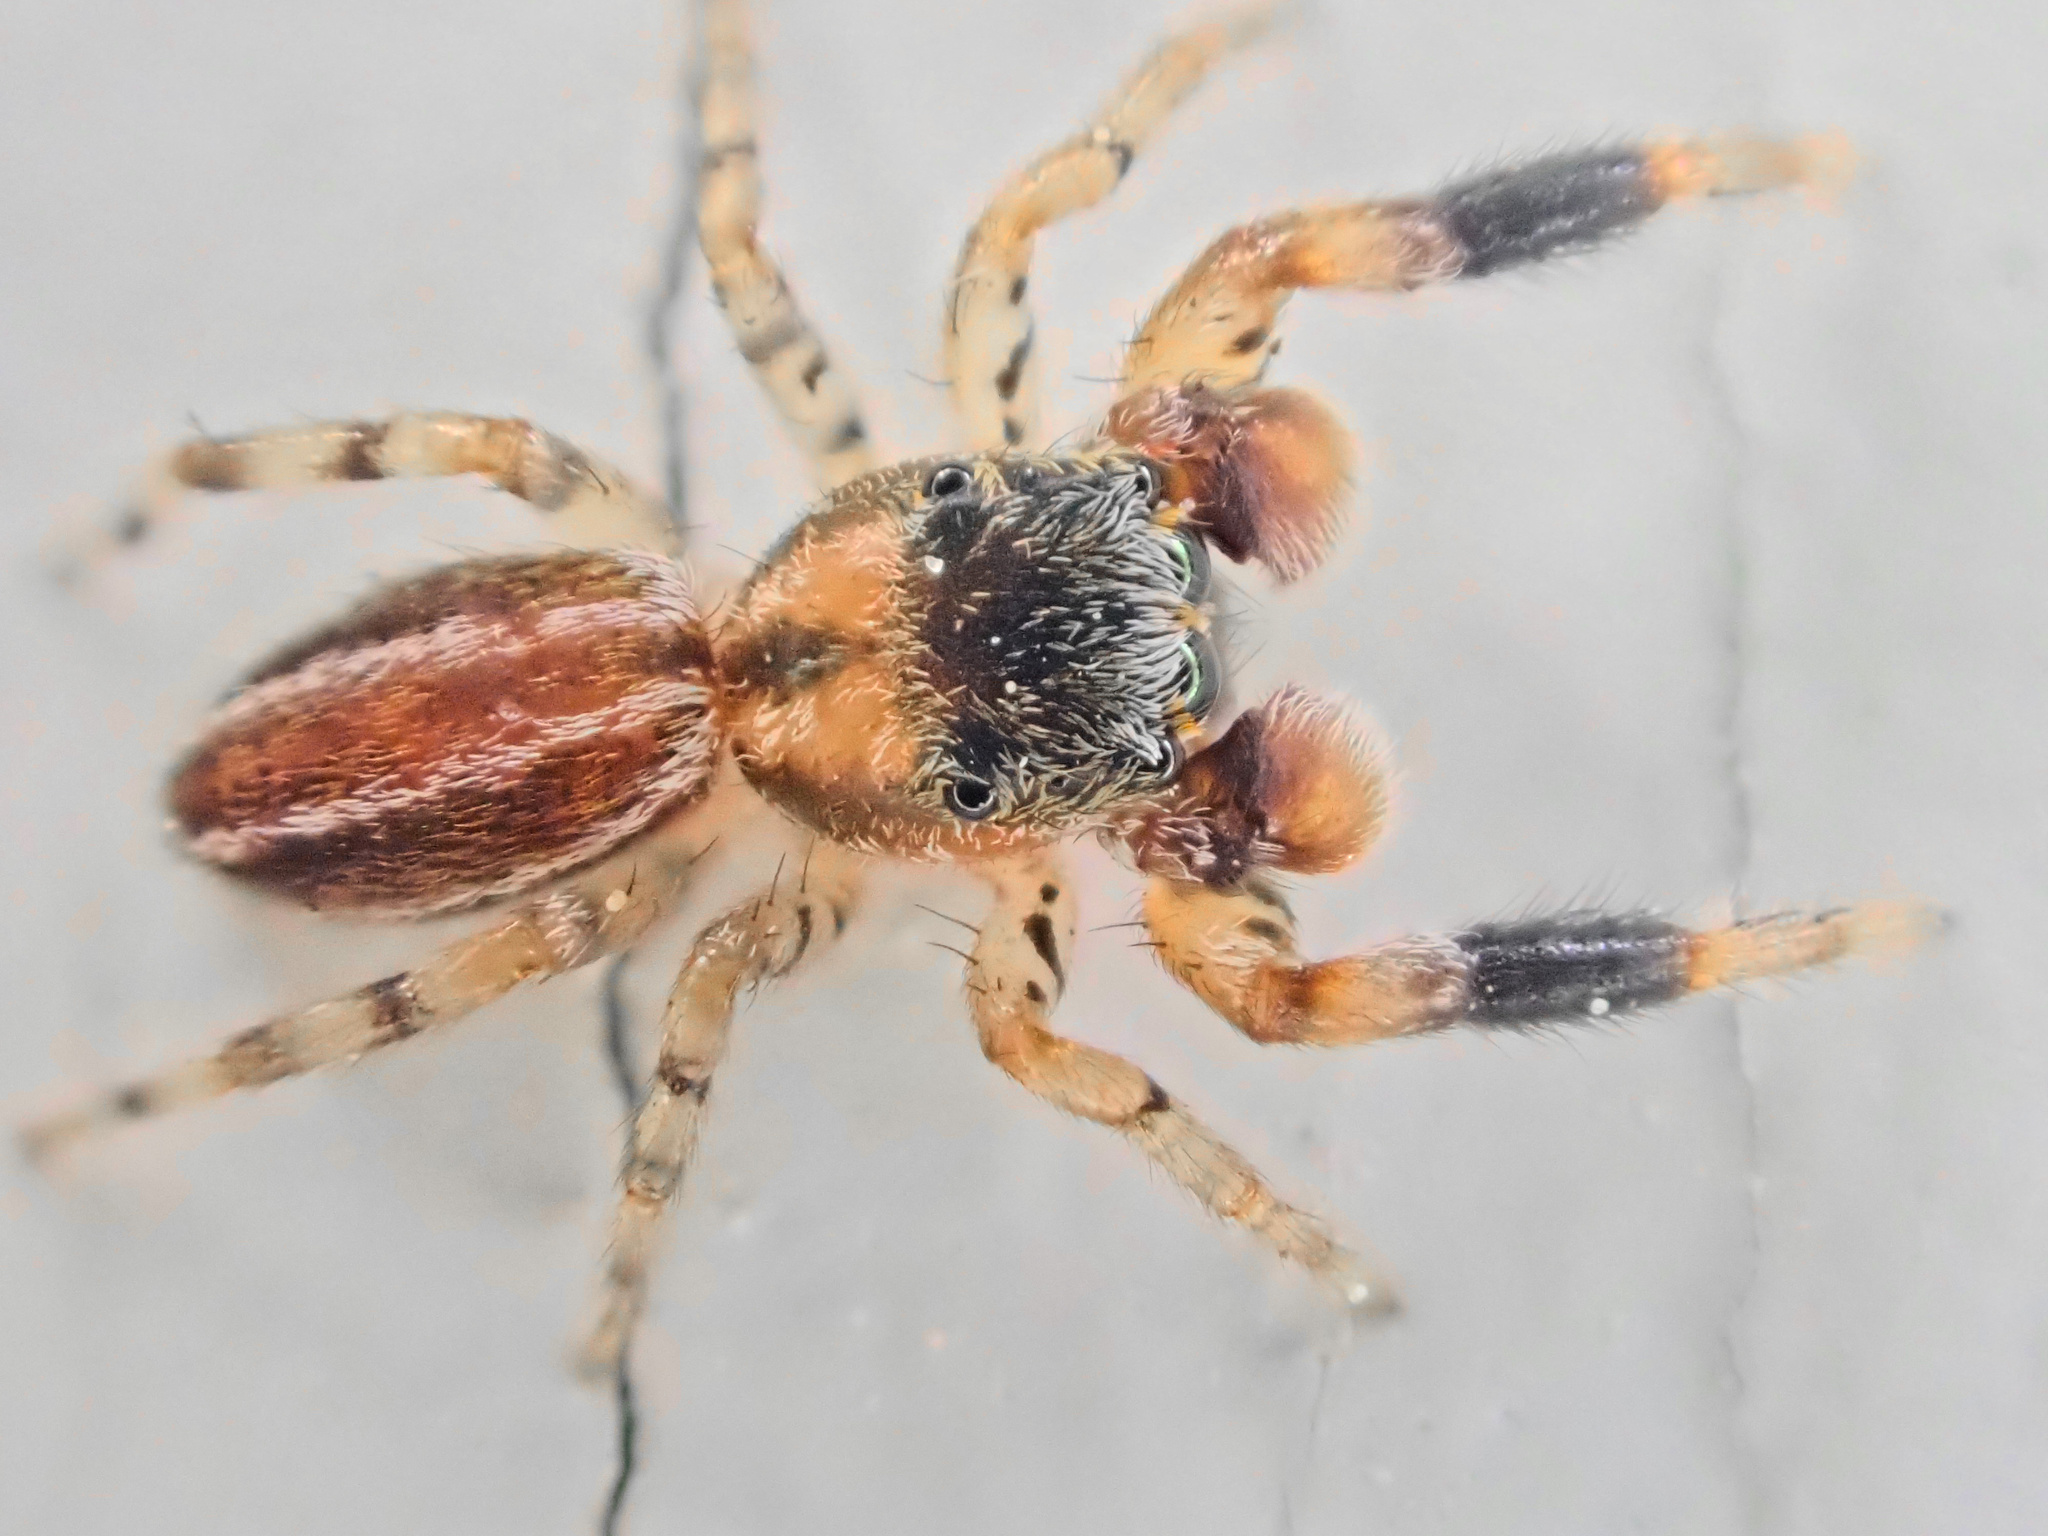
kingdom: Animalia
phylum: Arthropoda
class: Arachnida
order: Araneae
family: Salticidae
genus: Marpissa
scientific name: Marpissa lineata
